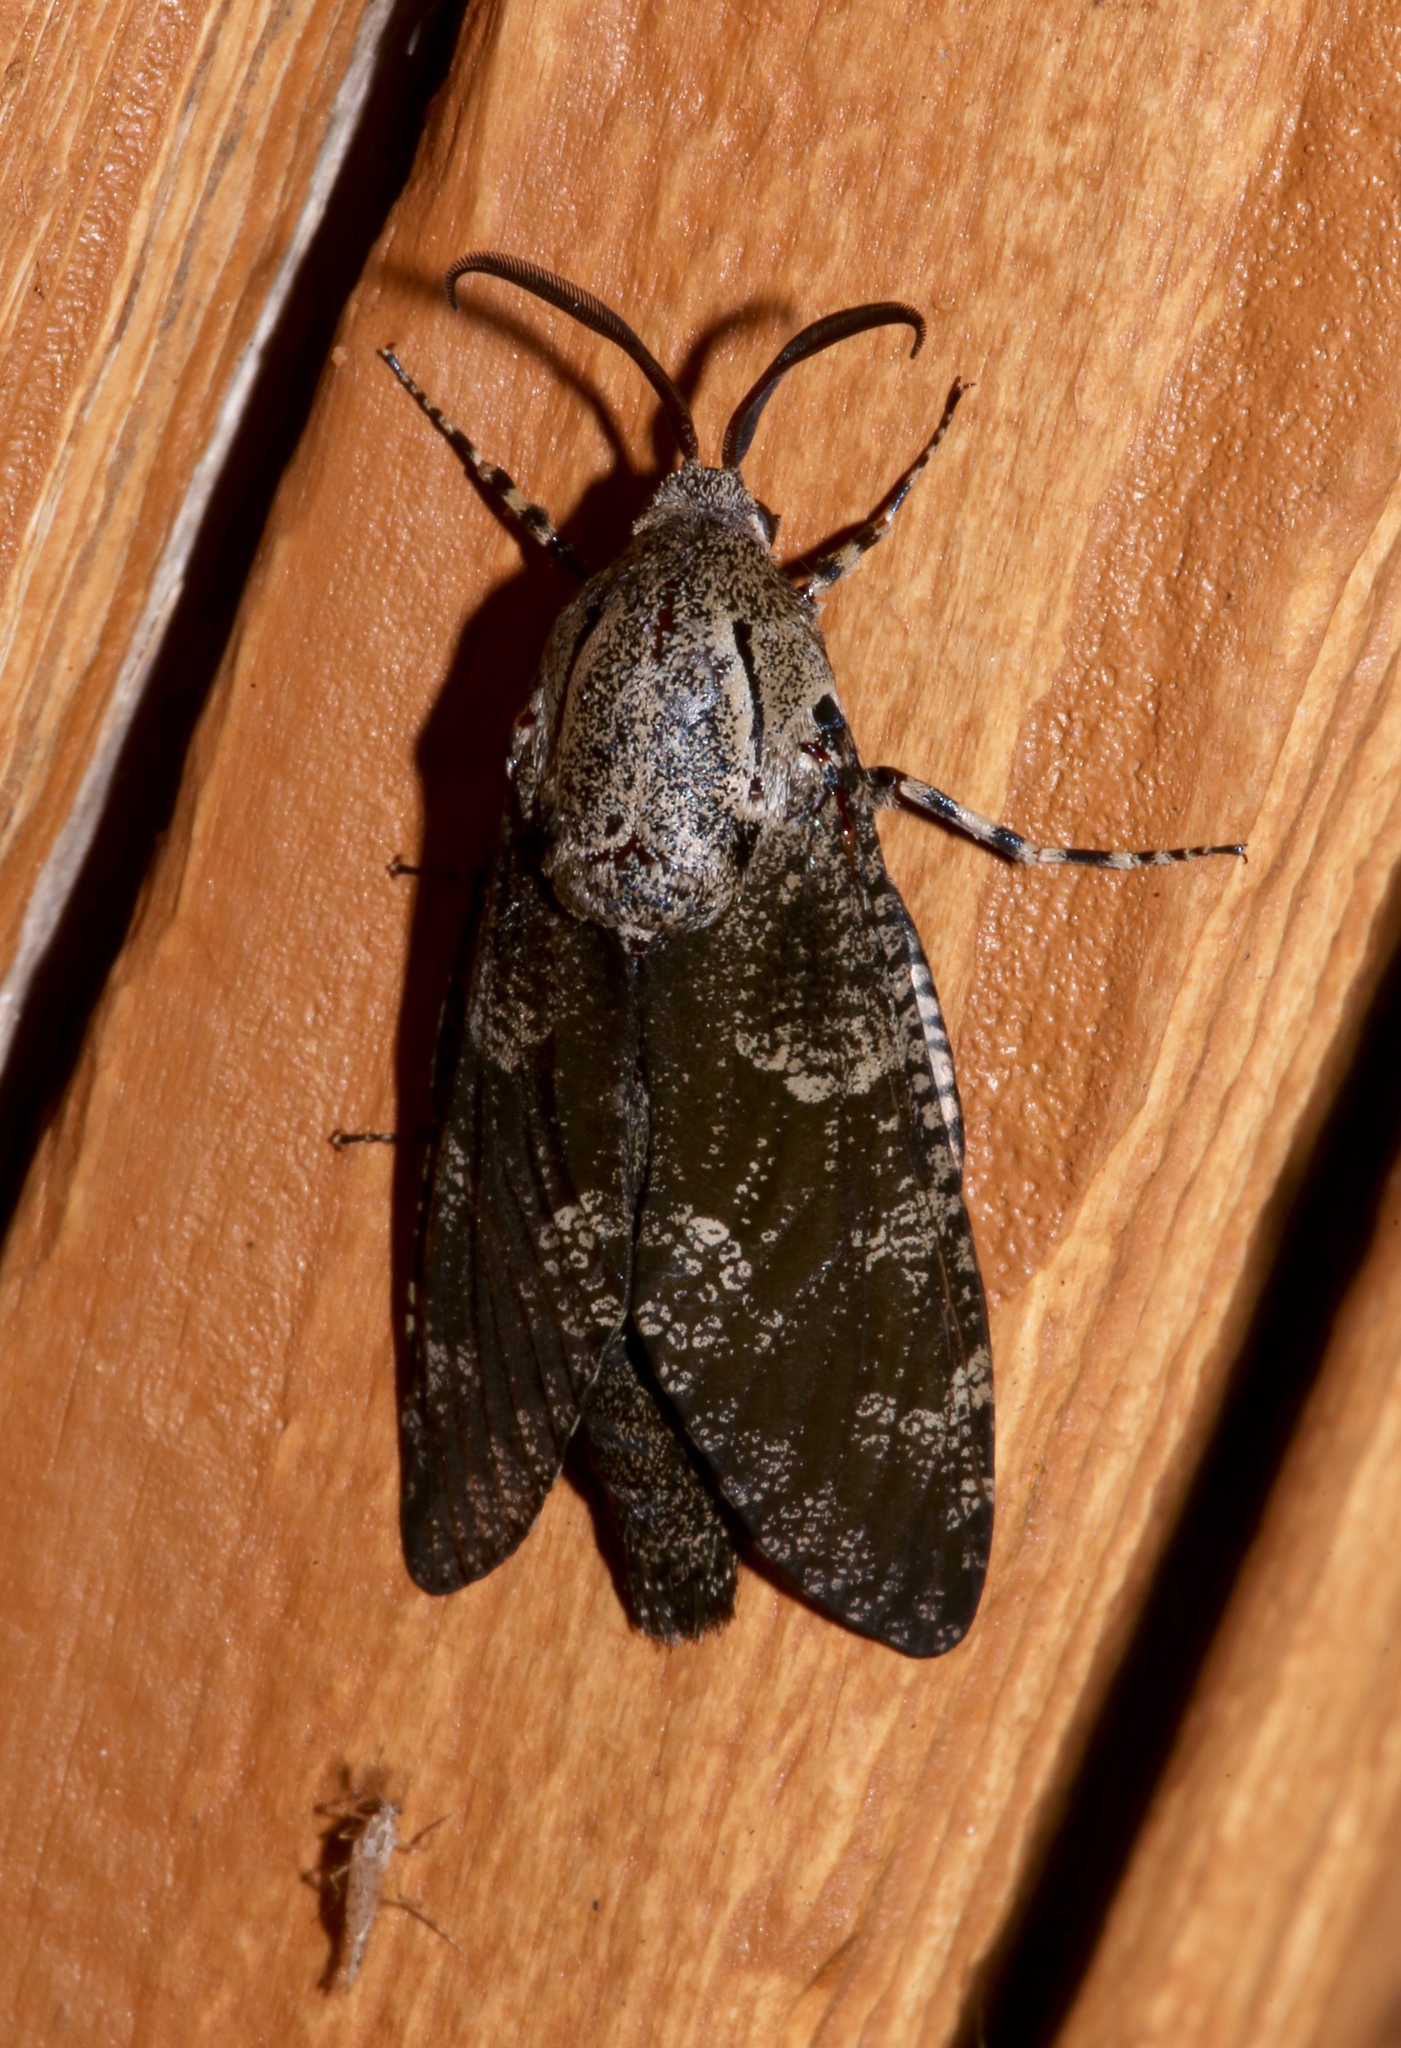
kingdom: Animalia
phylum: Arthropoda
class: Insecta
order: Lepidoptera
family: Cossidae
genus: Prionoxystus
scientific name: Prionoxystus robiniae
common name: Carpenterworm
